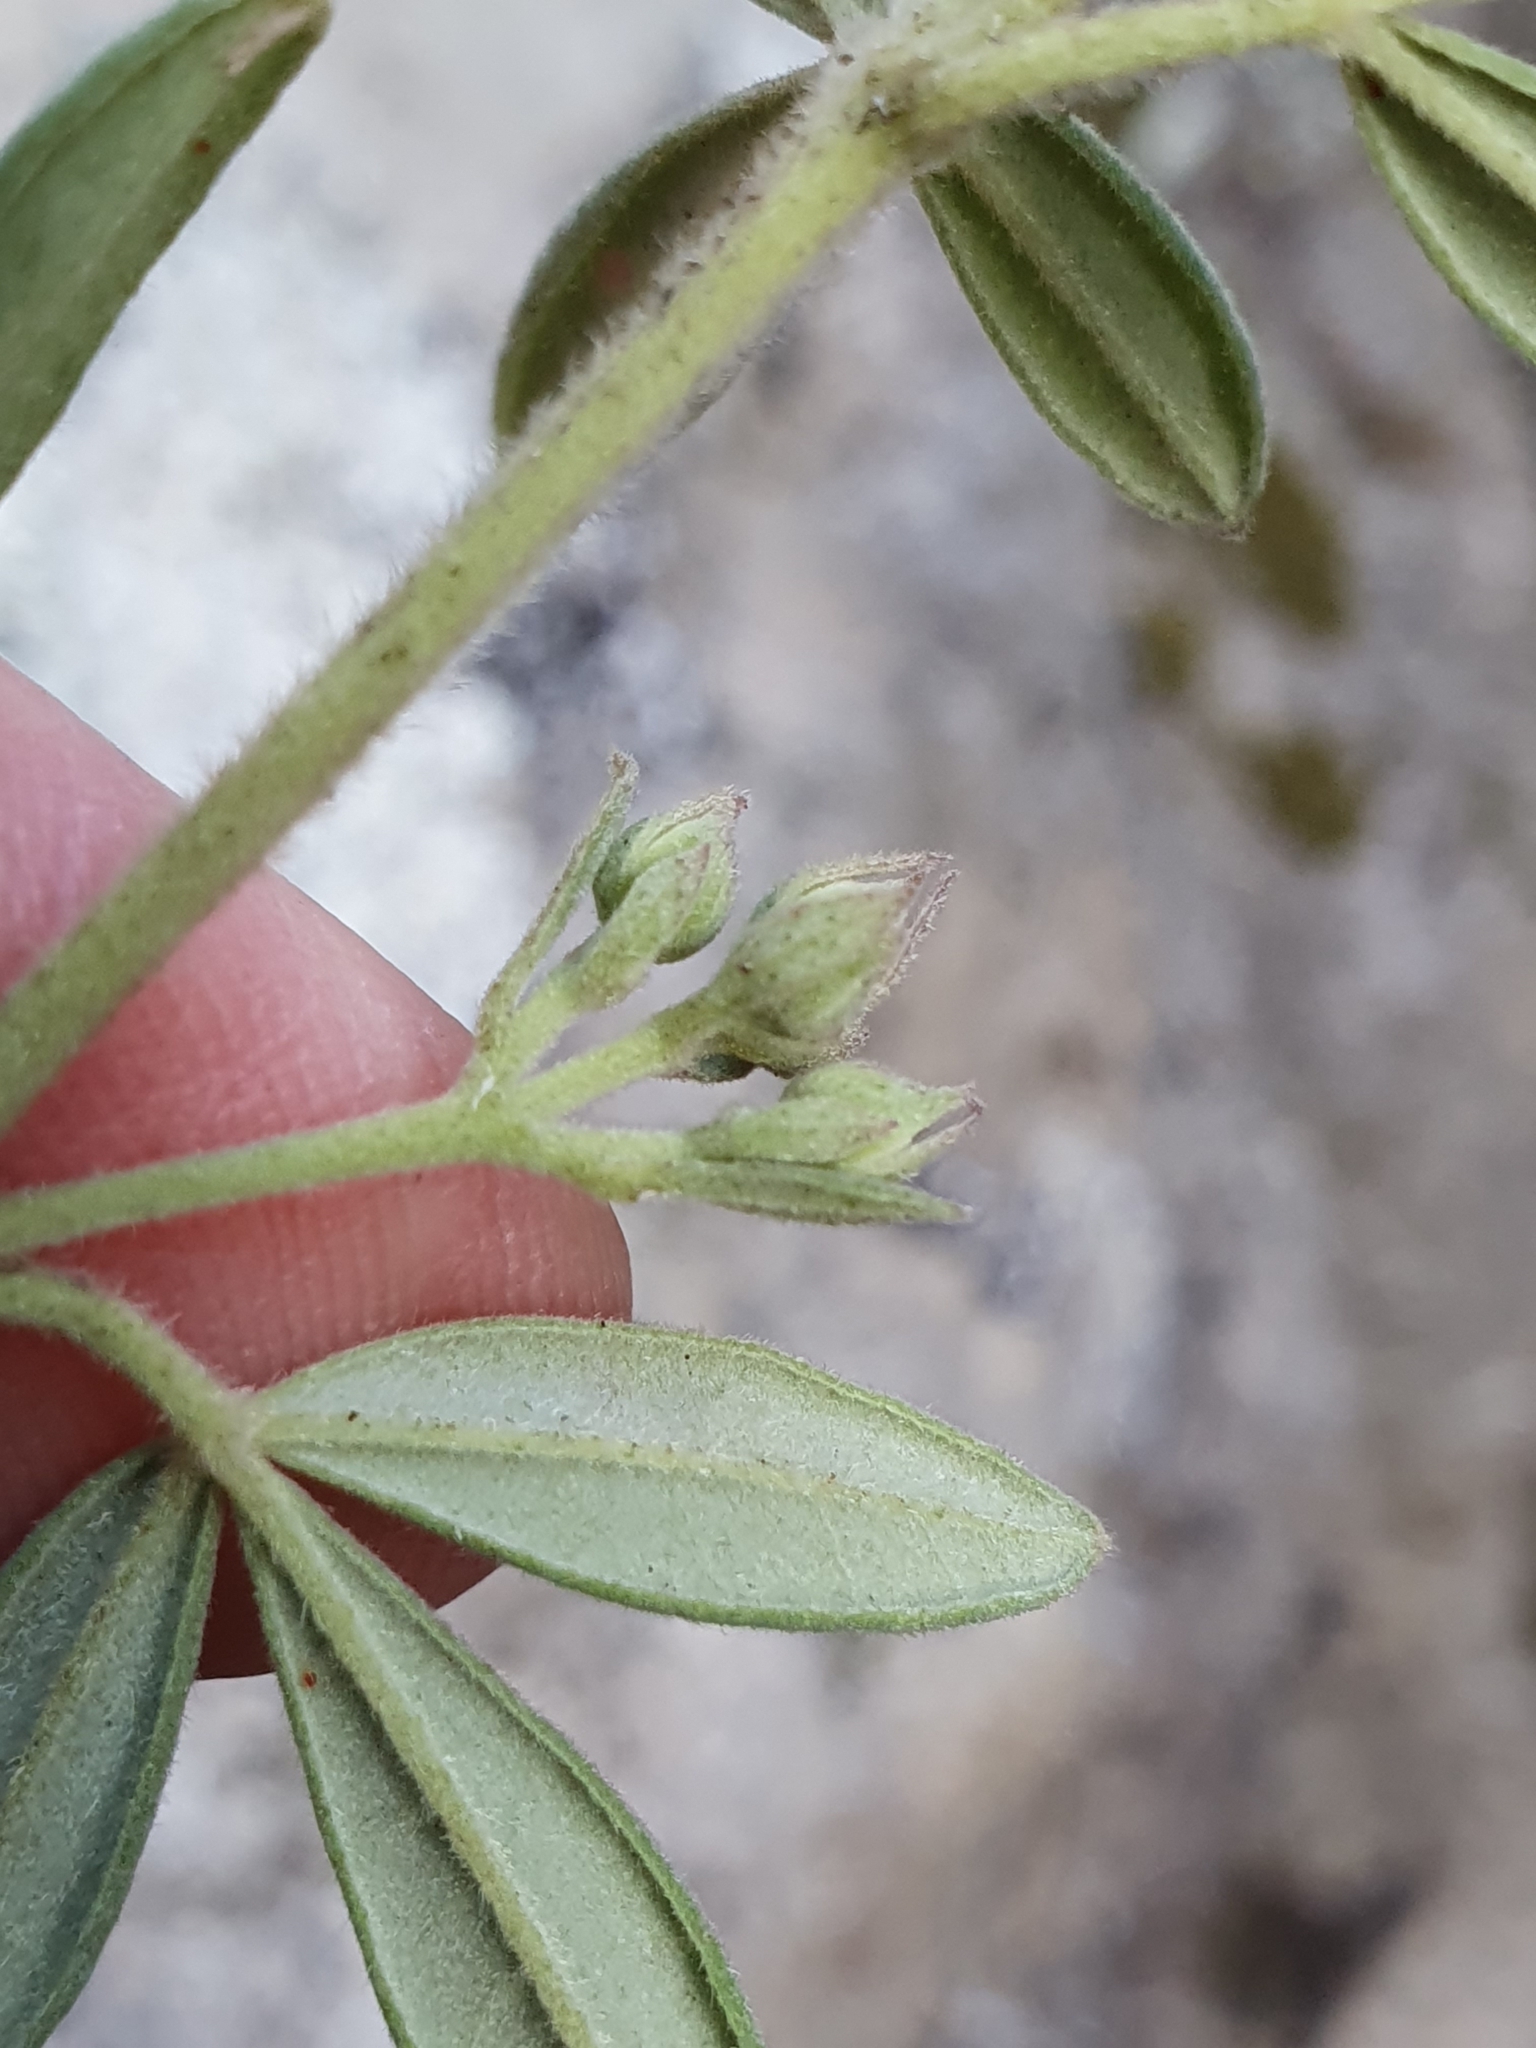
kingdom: Plantae
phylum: Tracheophyta
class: Magnoliopsida
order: Sapindales
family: Rutaceae
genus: Zieria
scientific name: Zieria cytisoides
